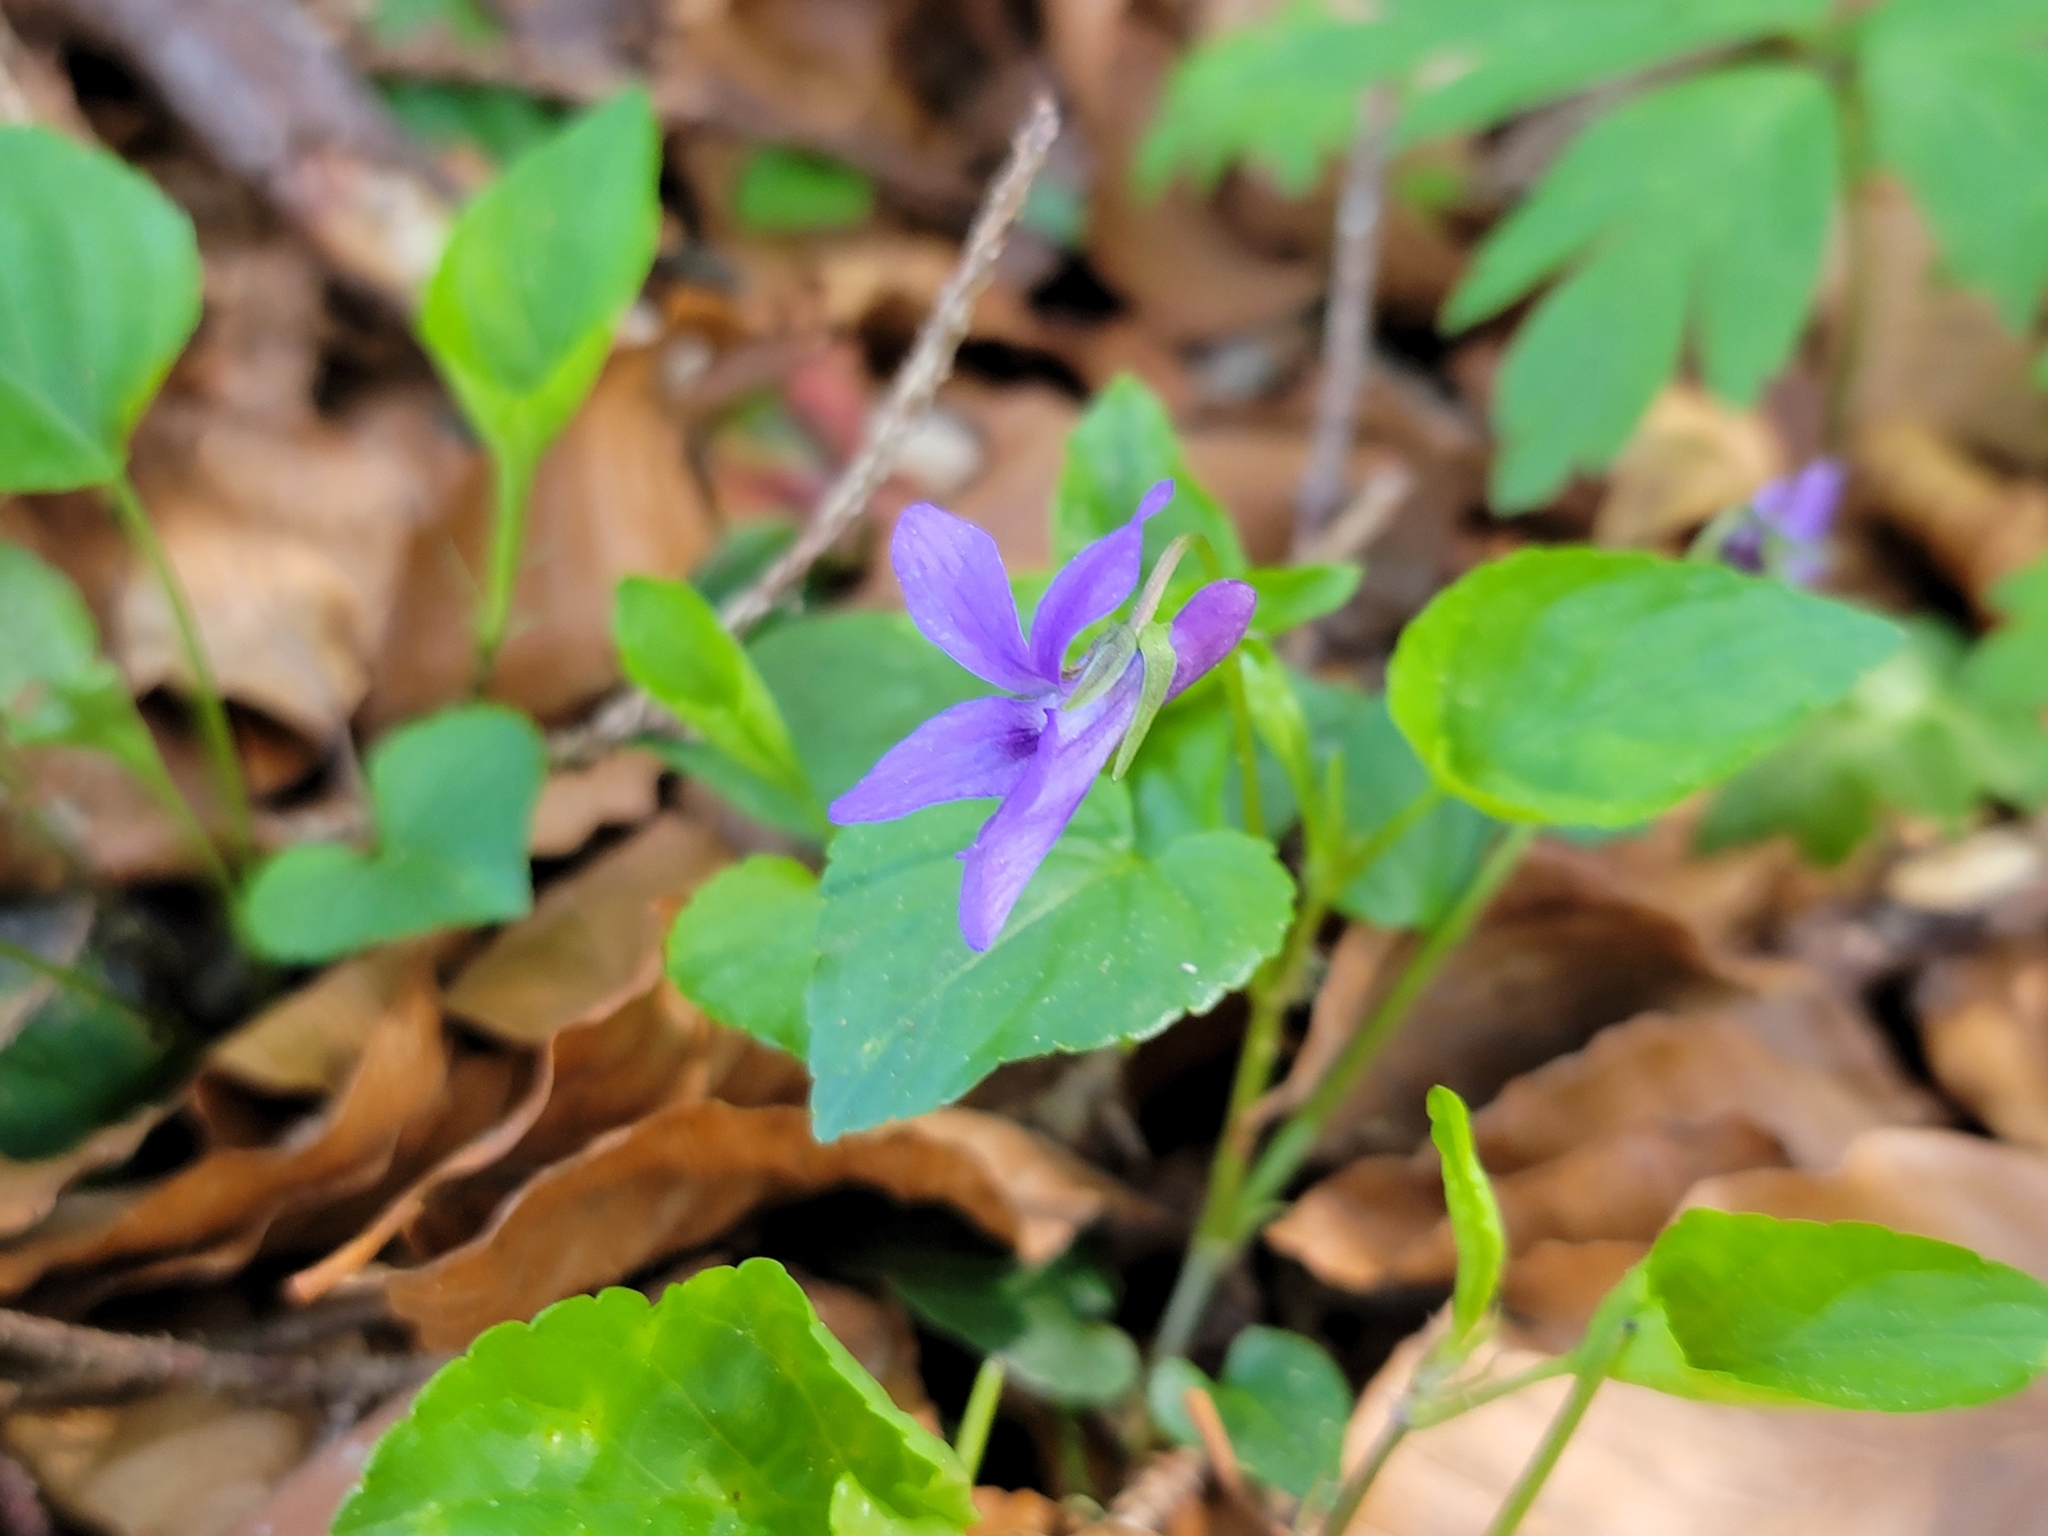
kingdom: Plantae
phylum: Tracheophyta
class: Magnoliopsida
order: Malpighiales
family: Violaceae
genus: Viola
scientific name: Viola reichenbachiana
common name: Early dog-violet
